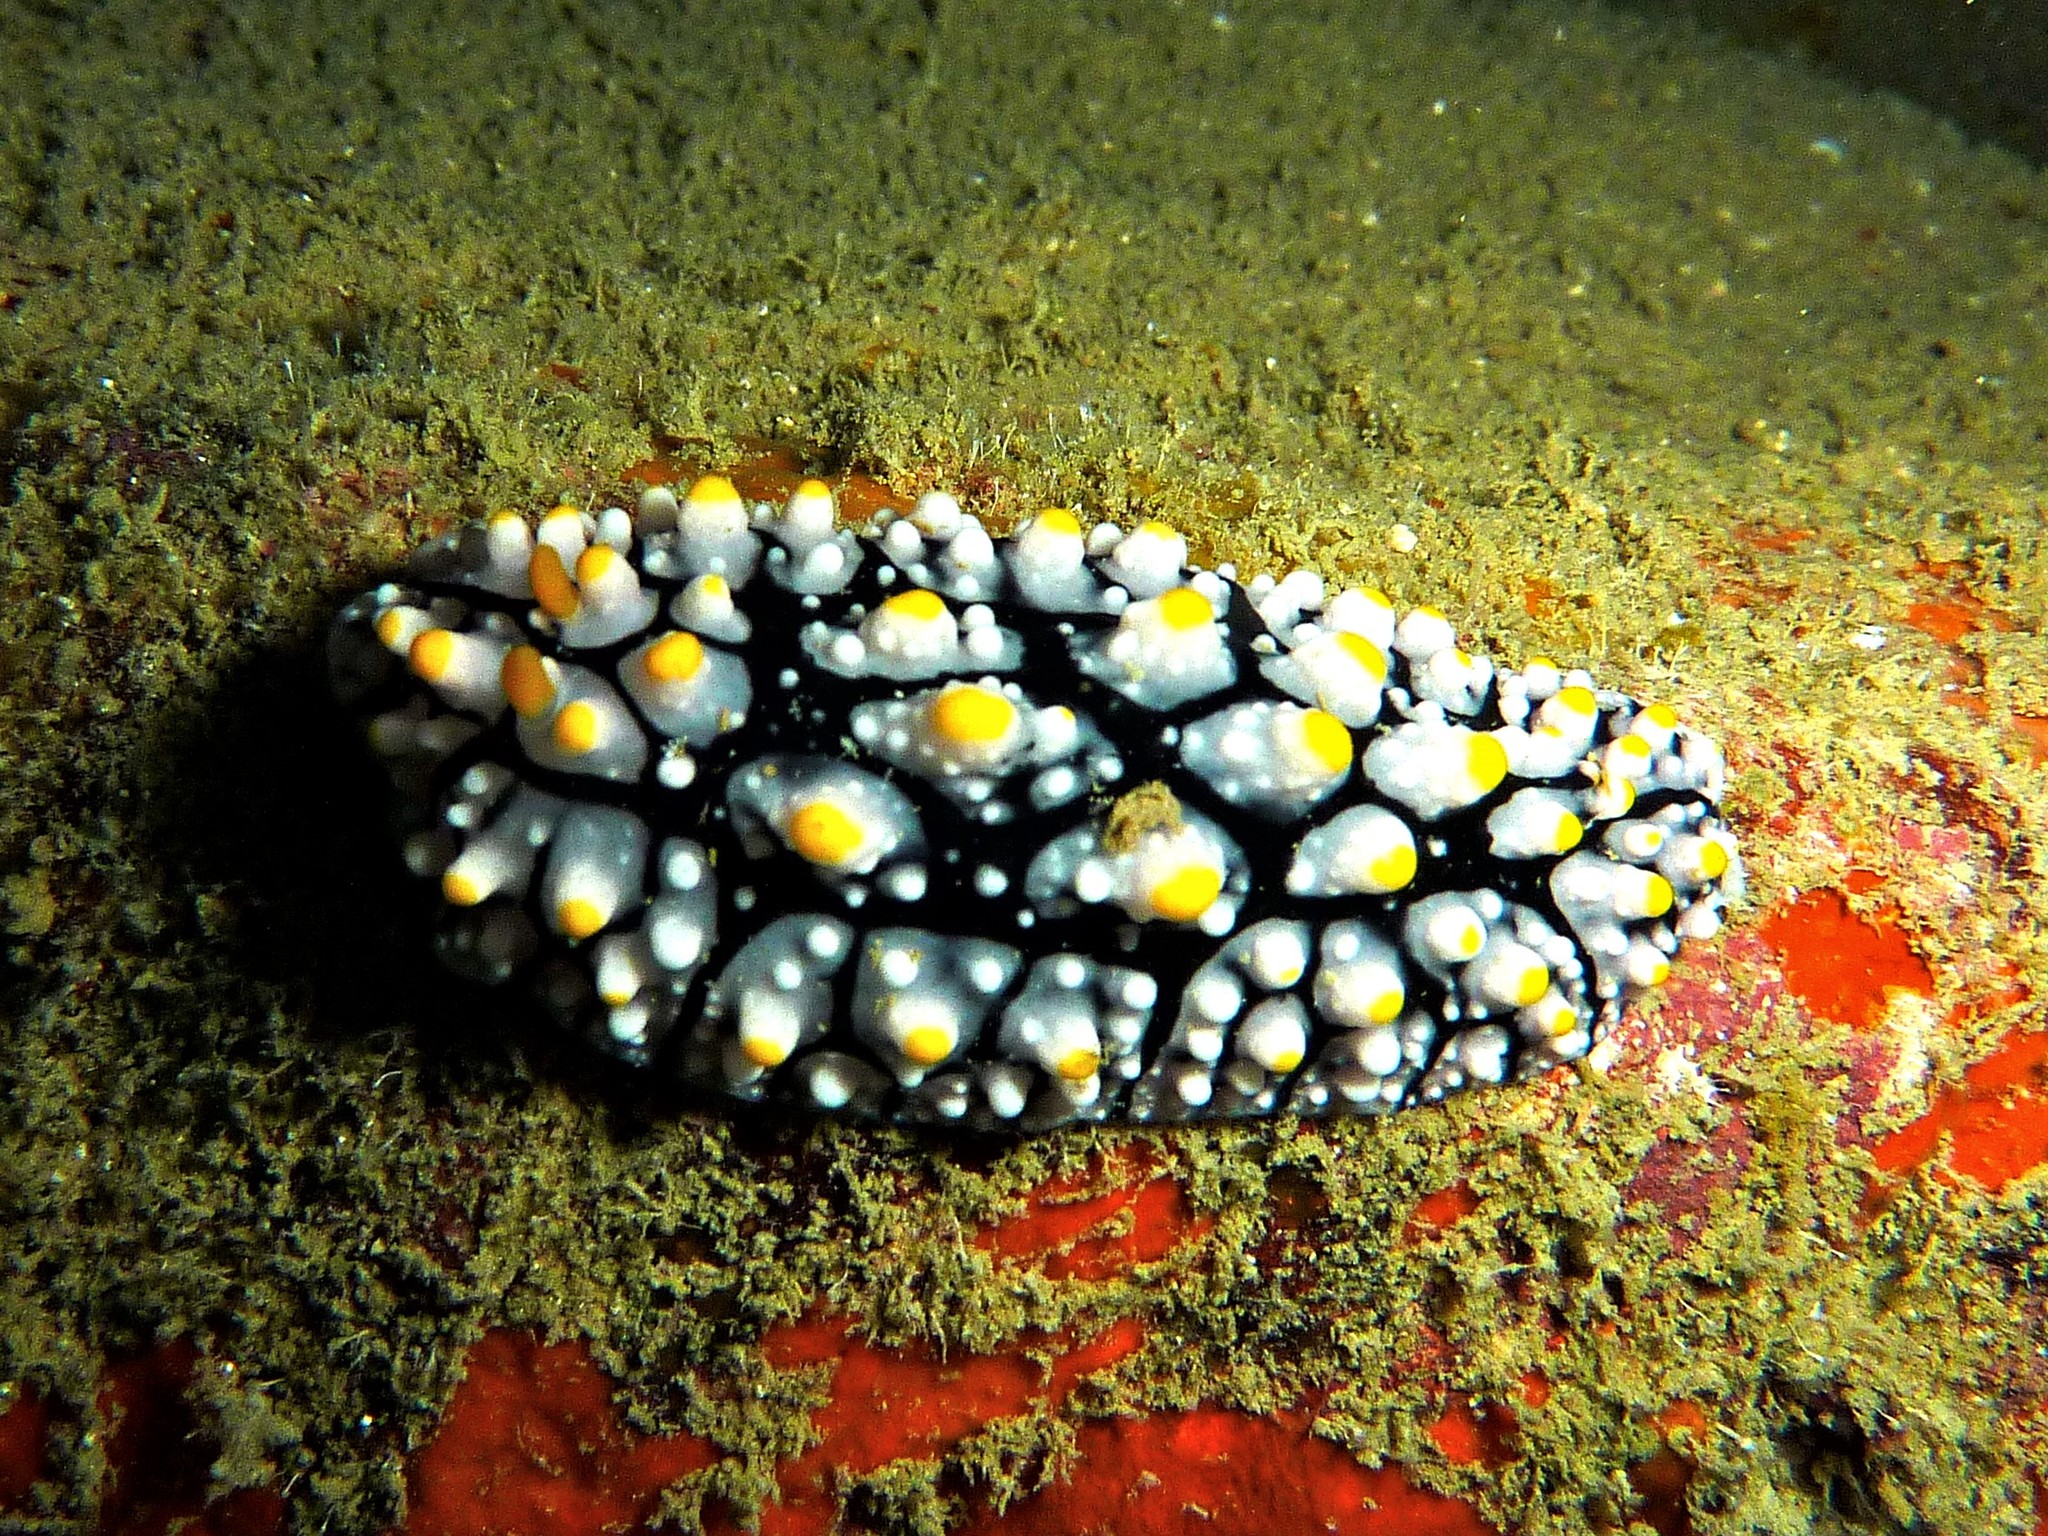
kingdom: Animalia
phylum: Mollusca
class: Gastropoda
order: Nudibranchia
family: Phyllidiidae
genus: Phyllidia
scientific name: Phyllidia elegans
